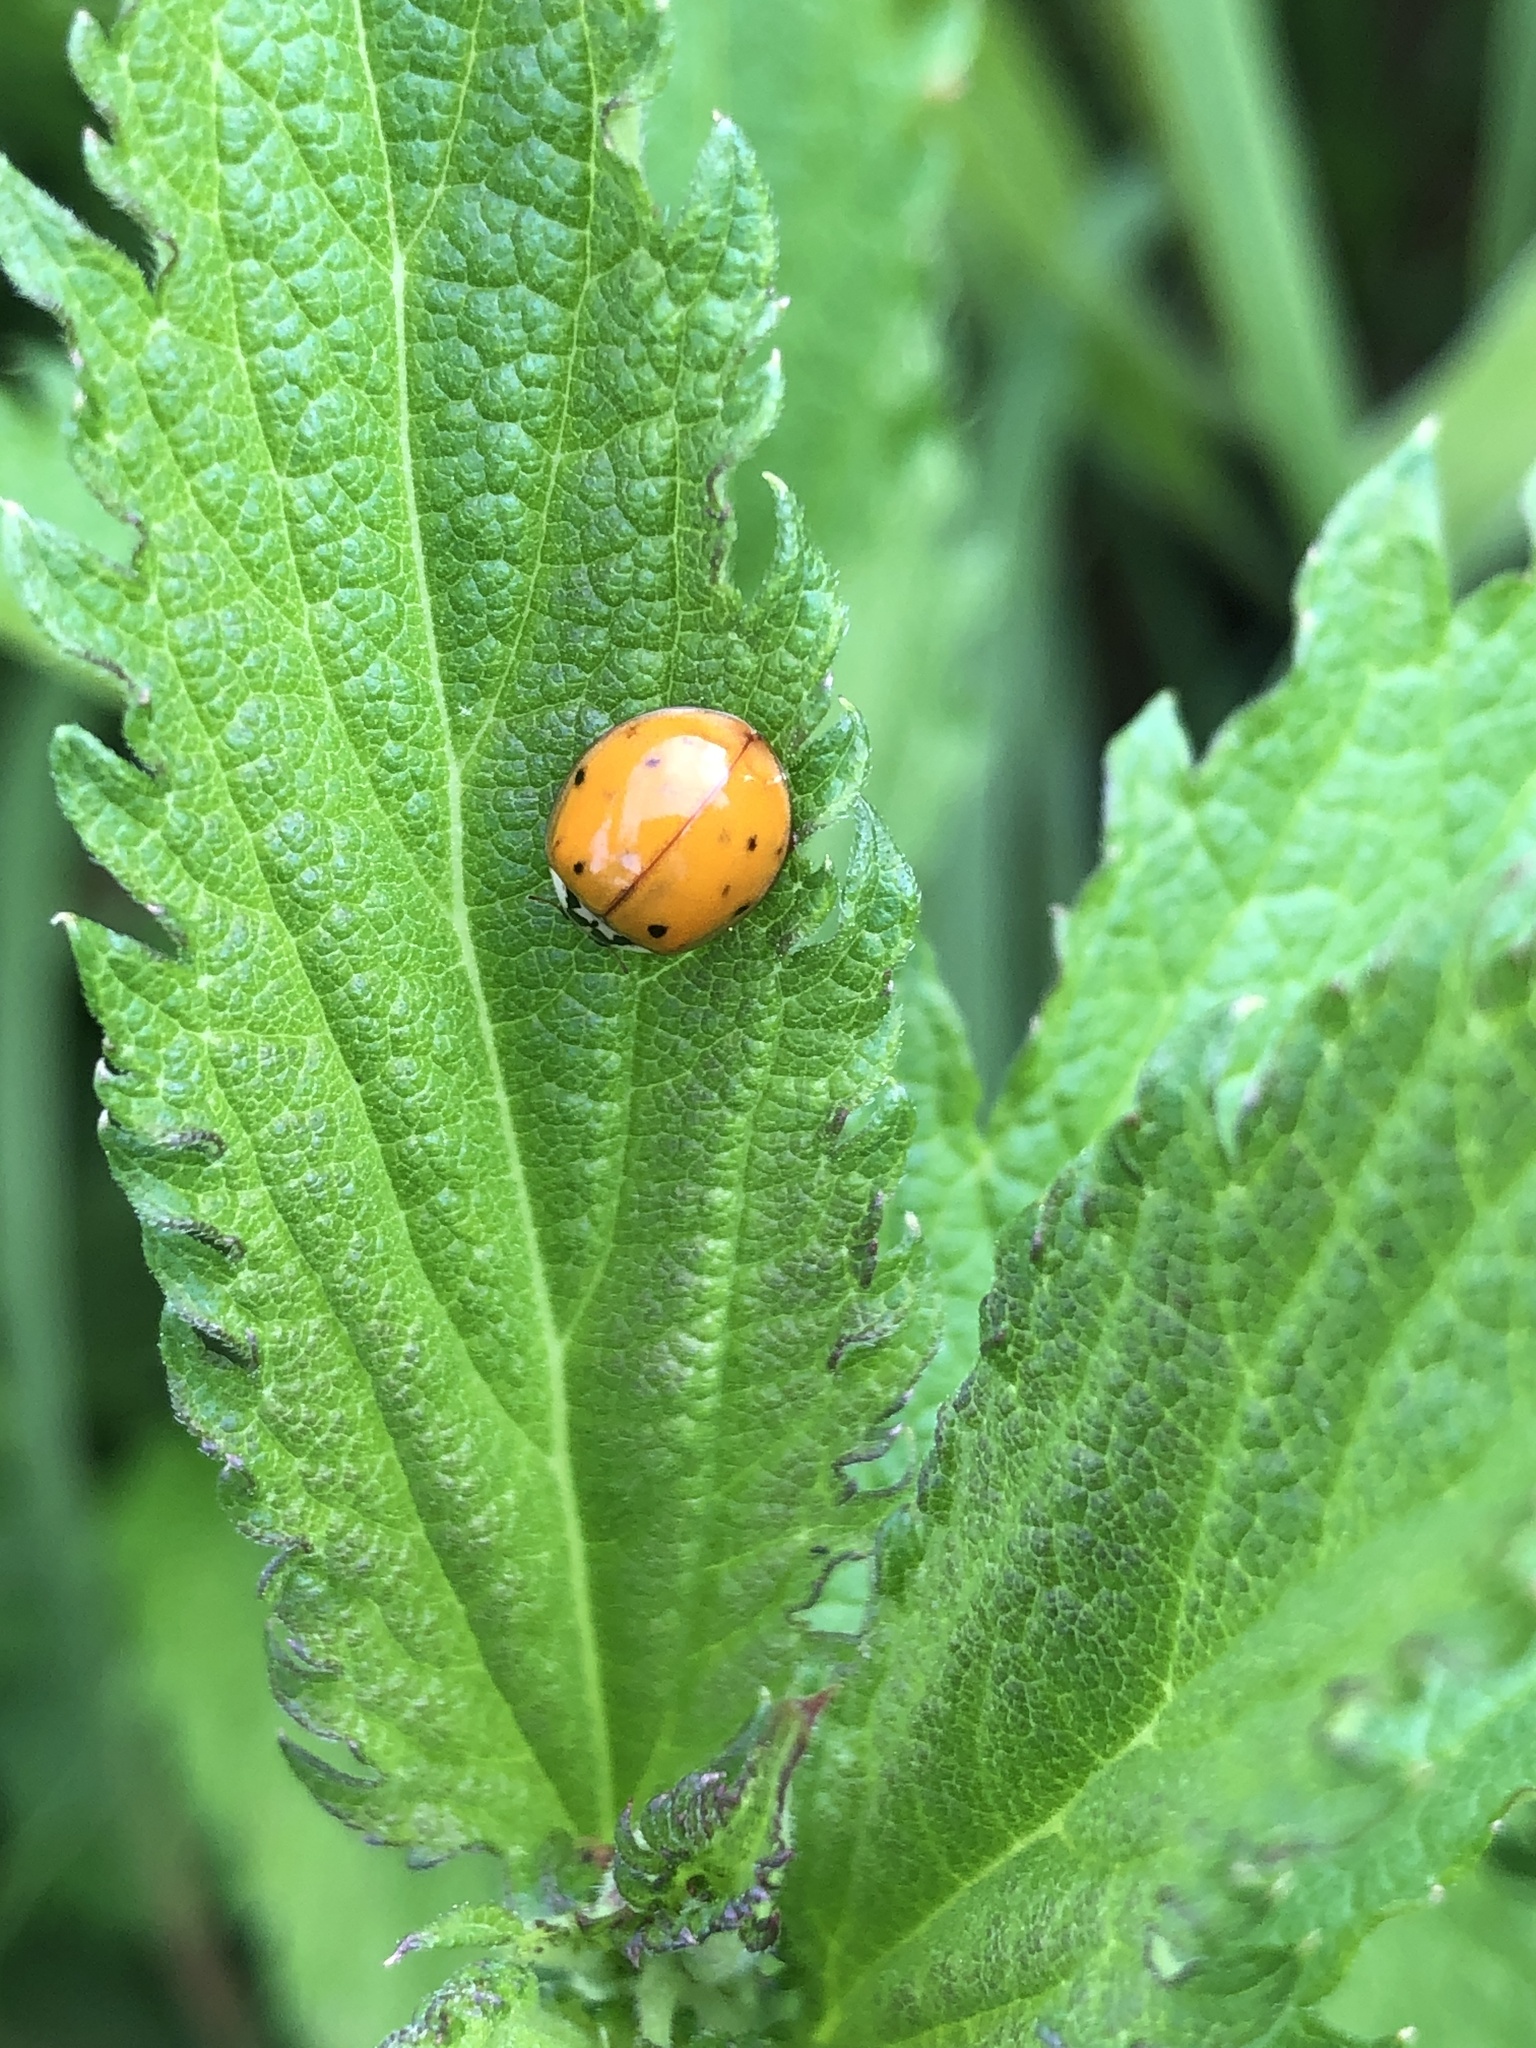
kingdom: Animalia
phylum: Arthropoda
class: Insecta
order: Coleoptera
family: Coccinellidae
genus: Harmonia
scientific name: Harmonia axyridis
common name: Harlequin ladybird
